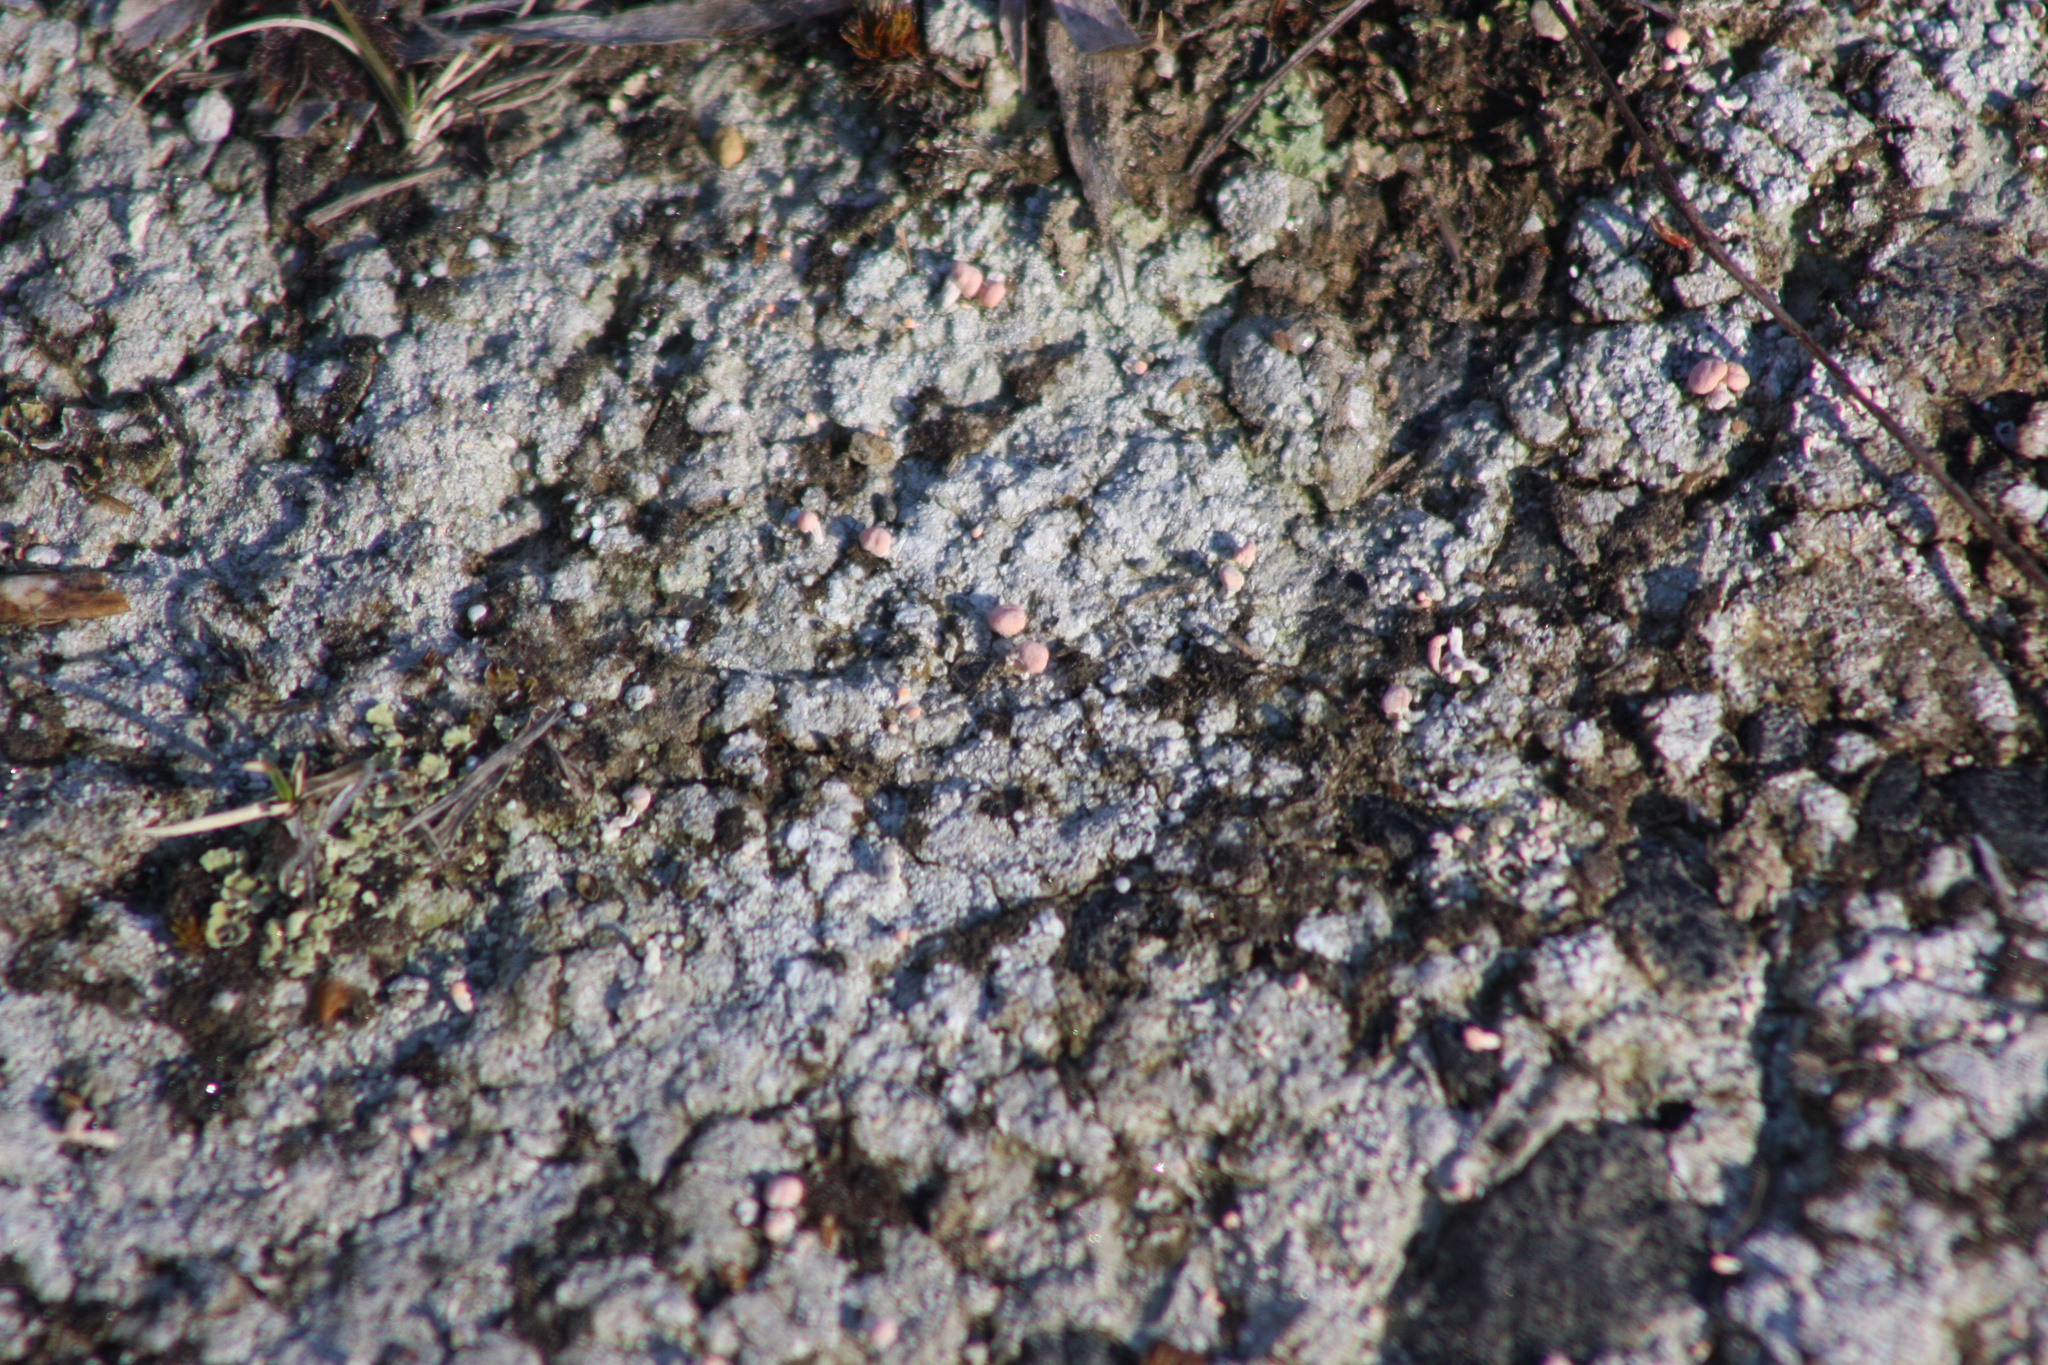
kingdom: Fungi
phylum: Ascomycota
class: Lecanoromycetes
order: Pertusariales
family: Icmadophilaceae
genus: Dibaeis
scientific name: Dibaeis baeomyces
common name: Pink earth lichen
